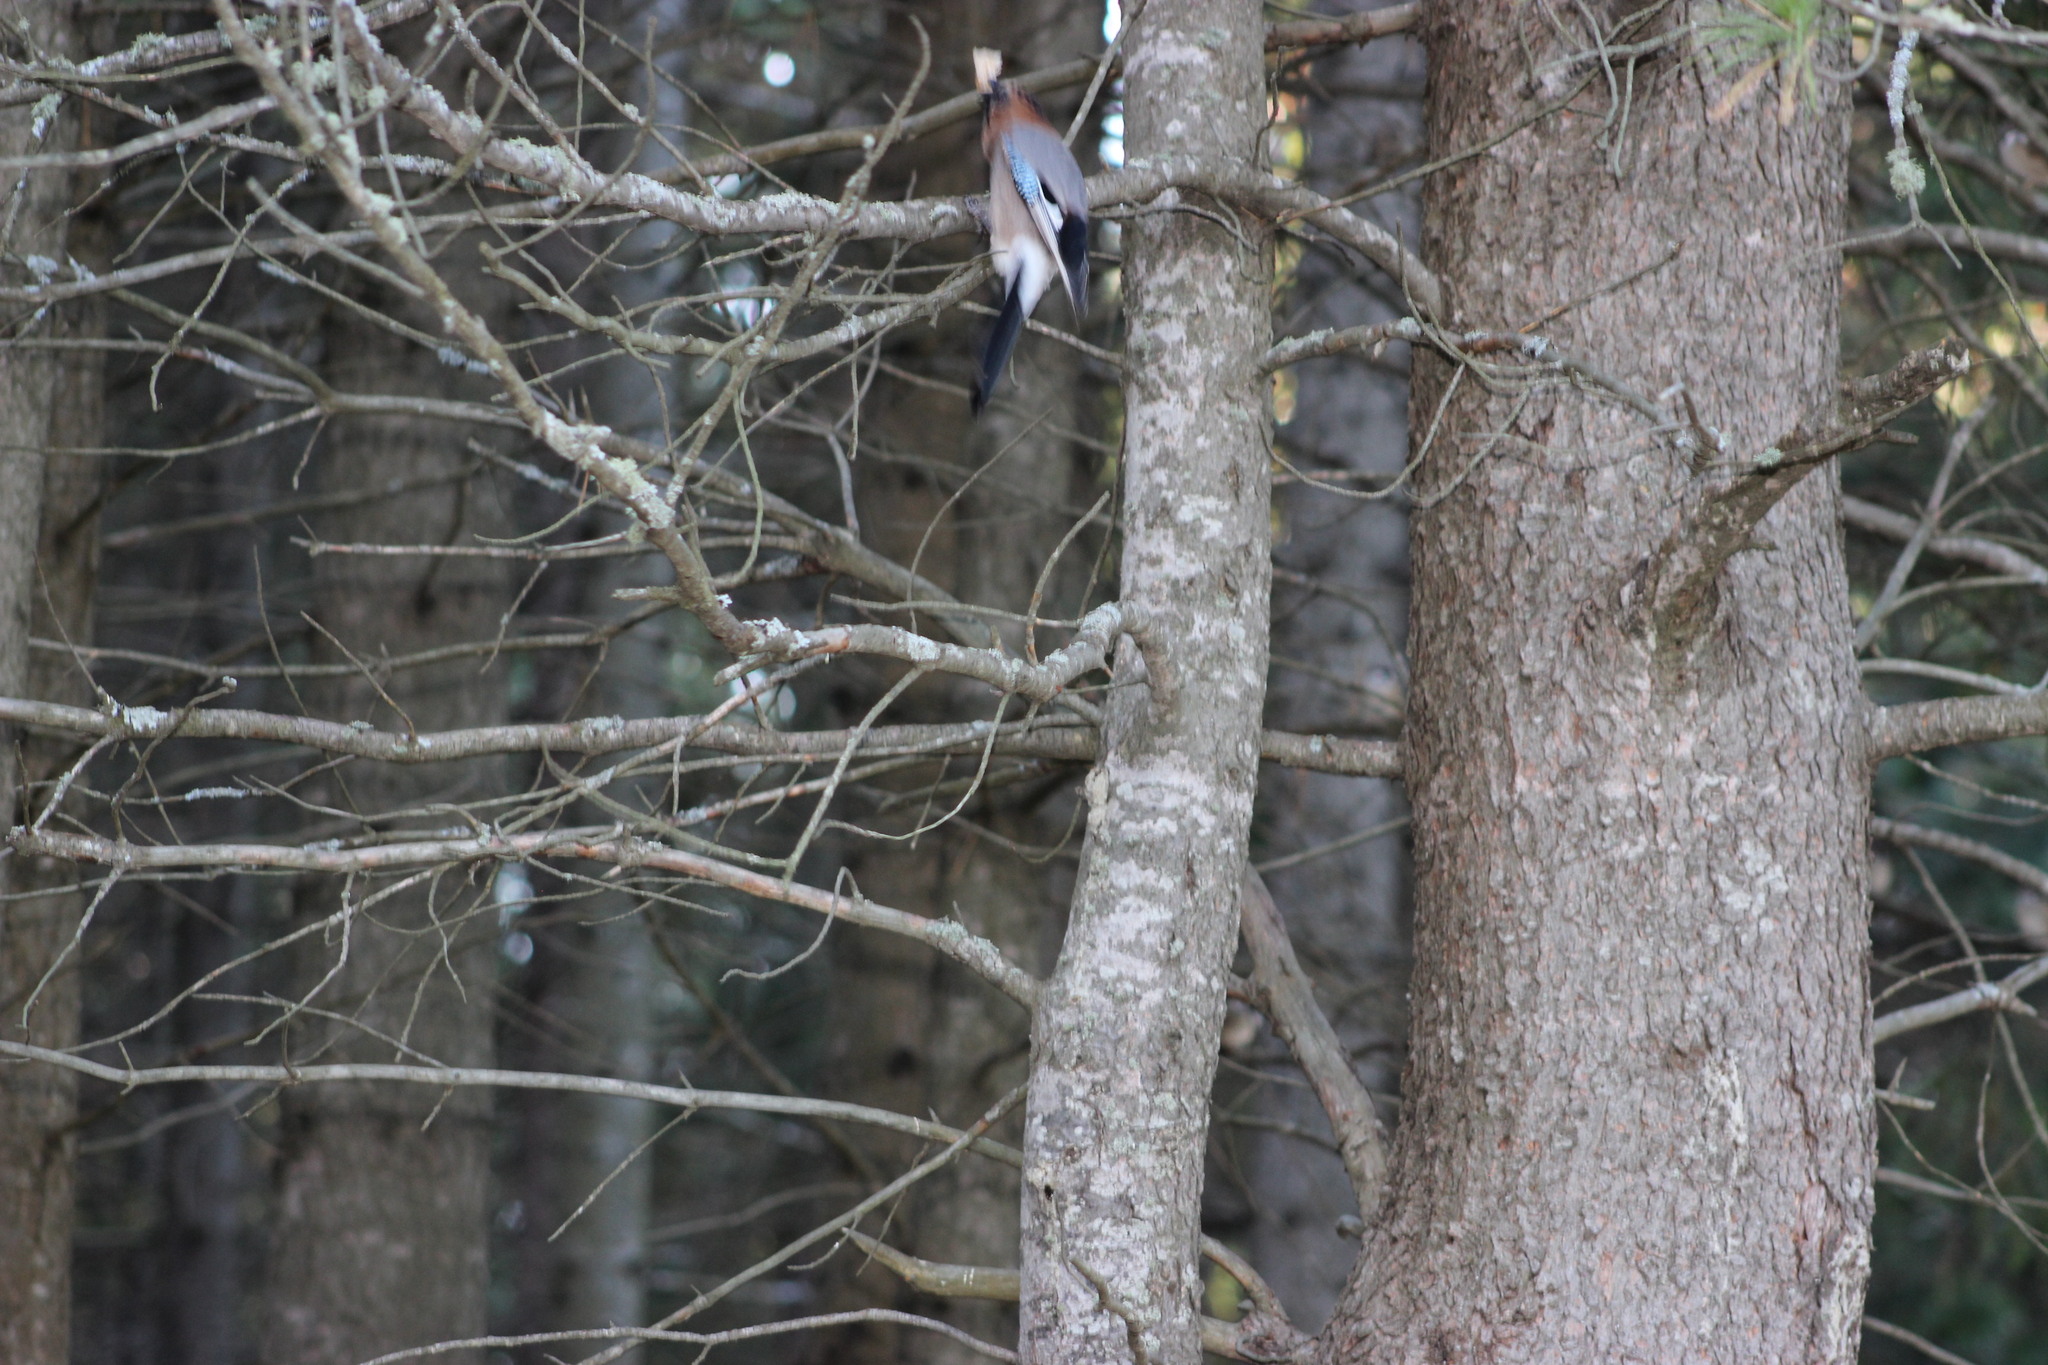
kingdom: Animalia
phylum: Chordata
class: Aves
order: Passeriformes
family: Corvidae
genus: Garrulus
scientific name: Garrulus glandarius
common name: Eurasian jay
